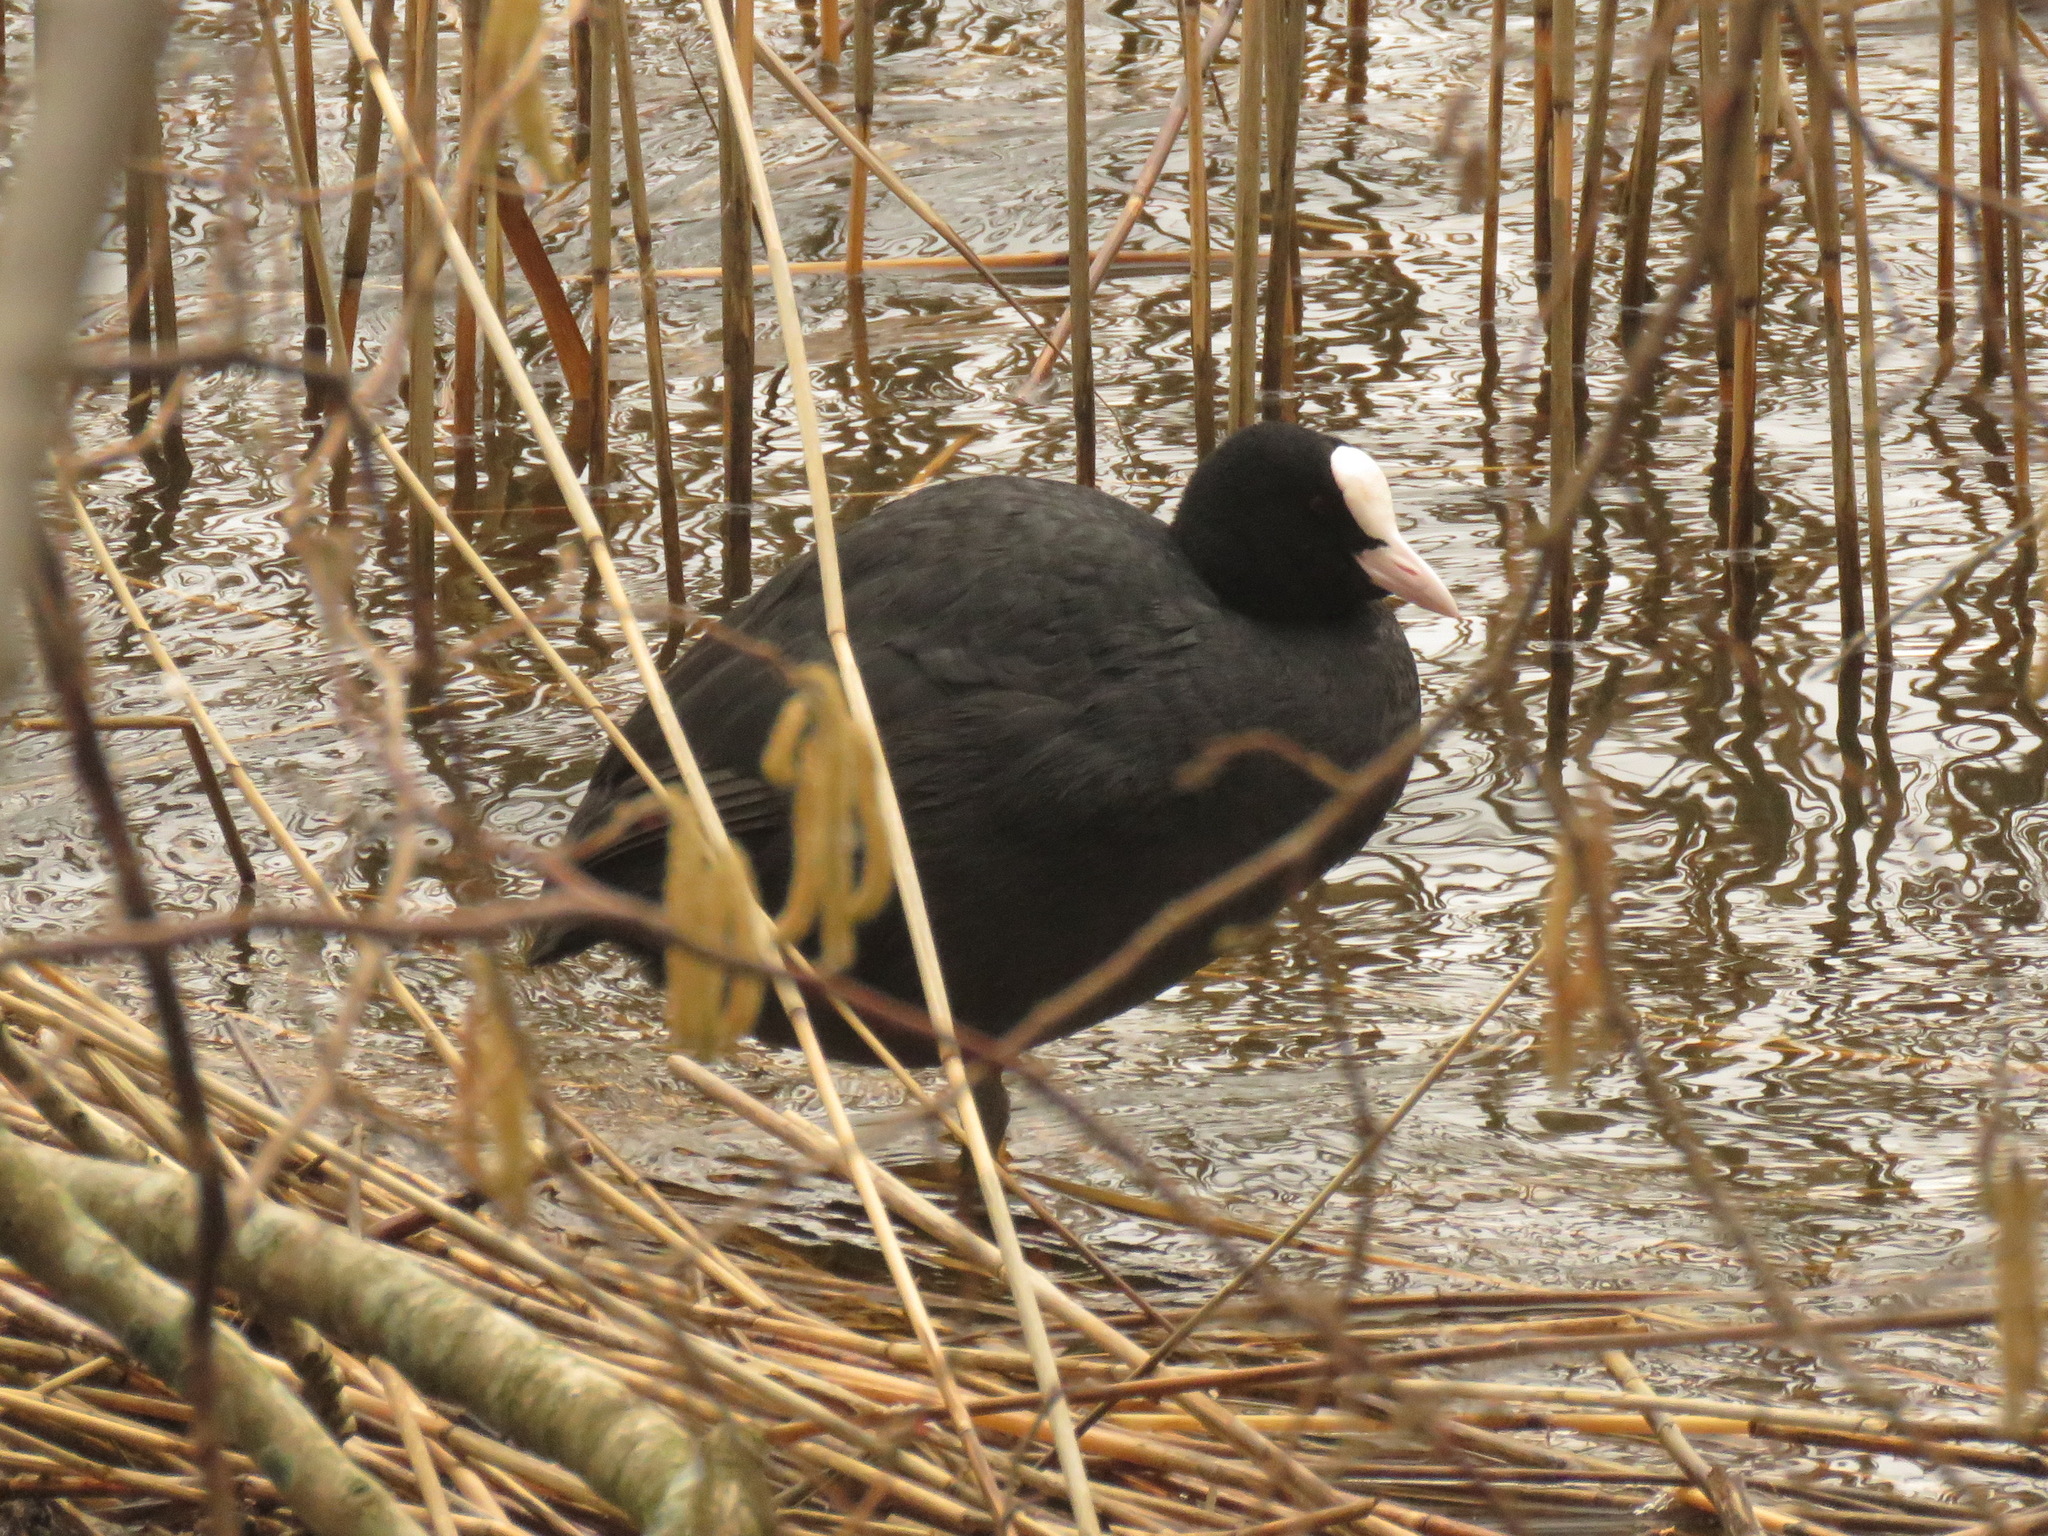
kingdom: Animalia
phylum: Chordata
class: Aves
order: Gruiformes
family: Rallidae
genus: Fulica
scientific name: Fulica atra
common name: Eurasian coot
